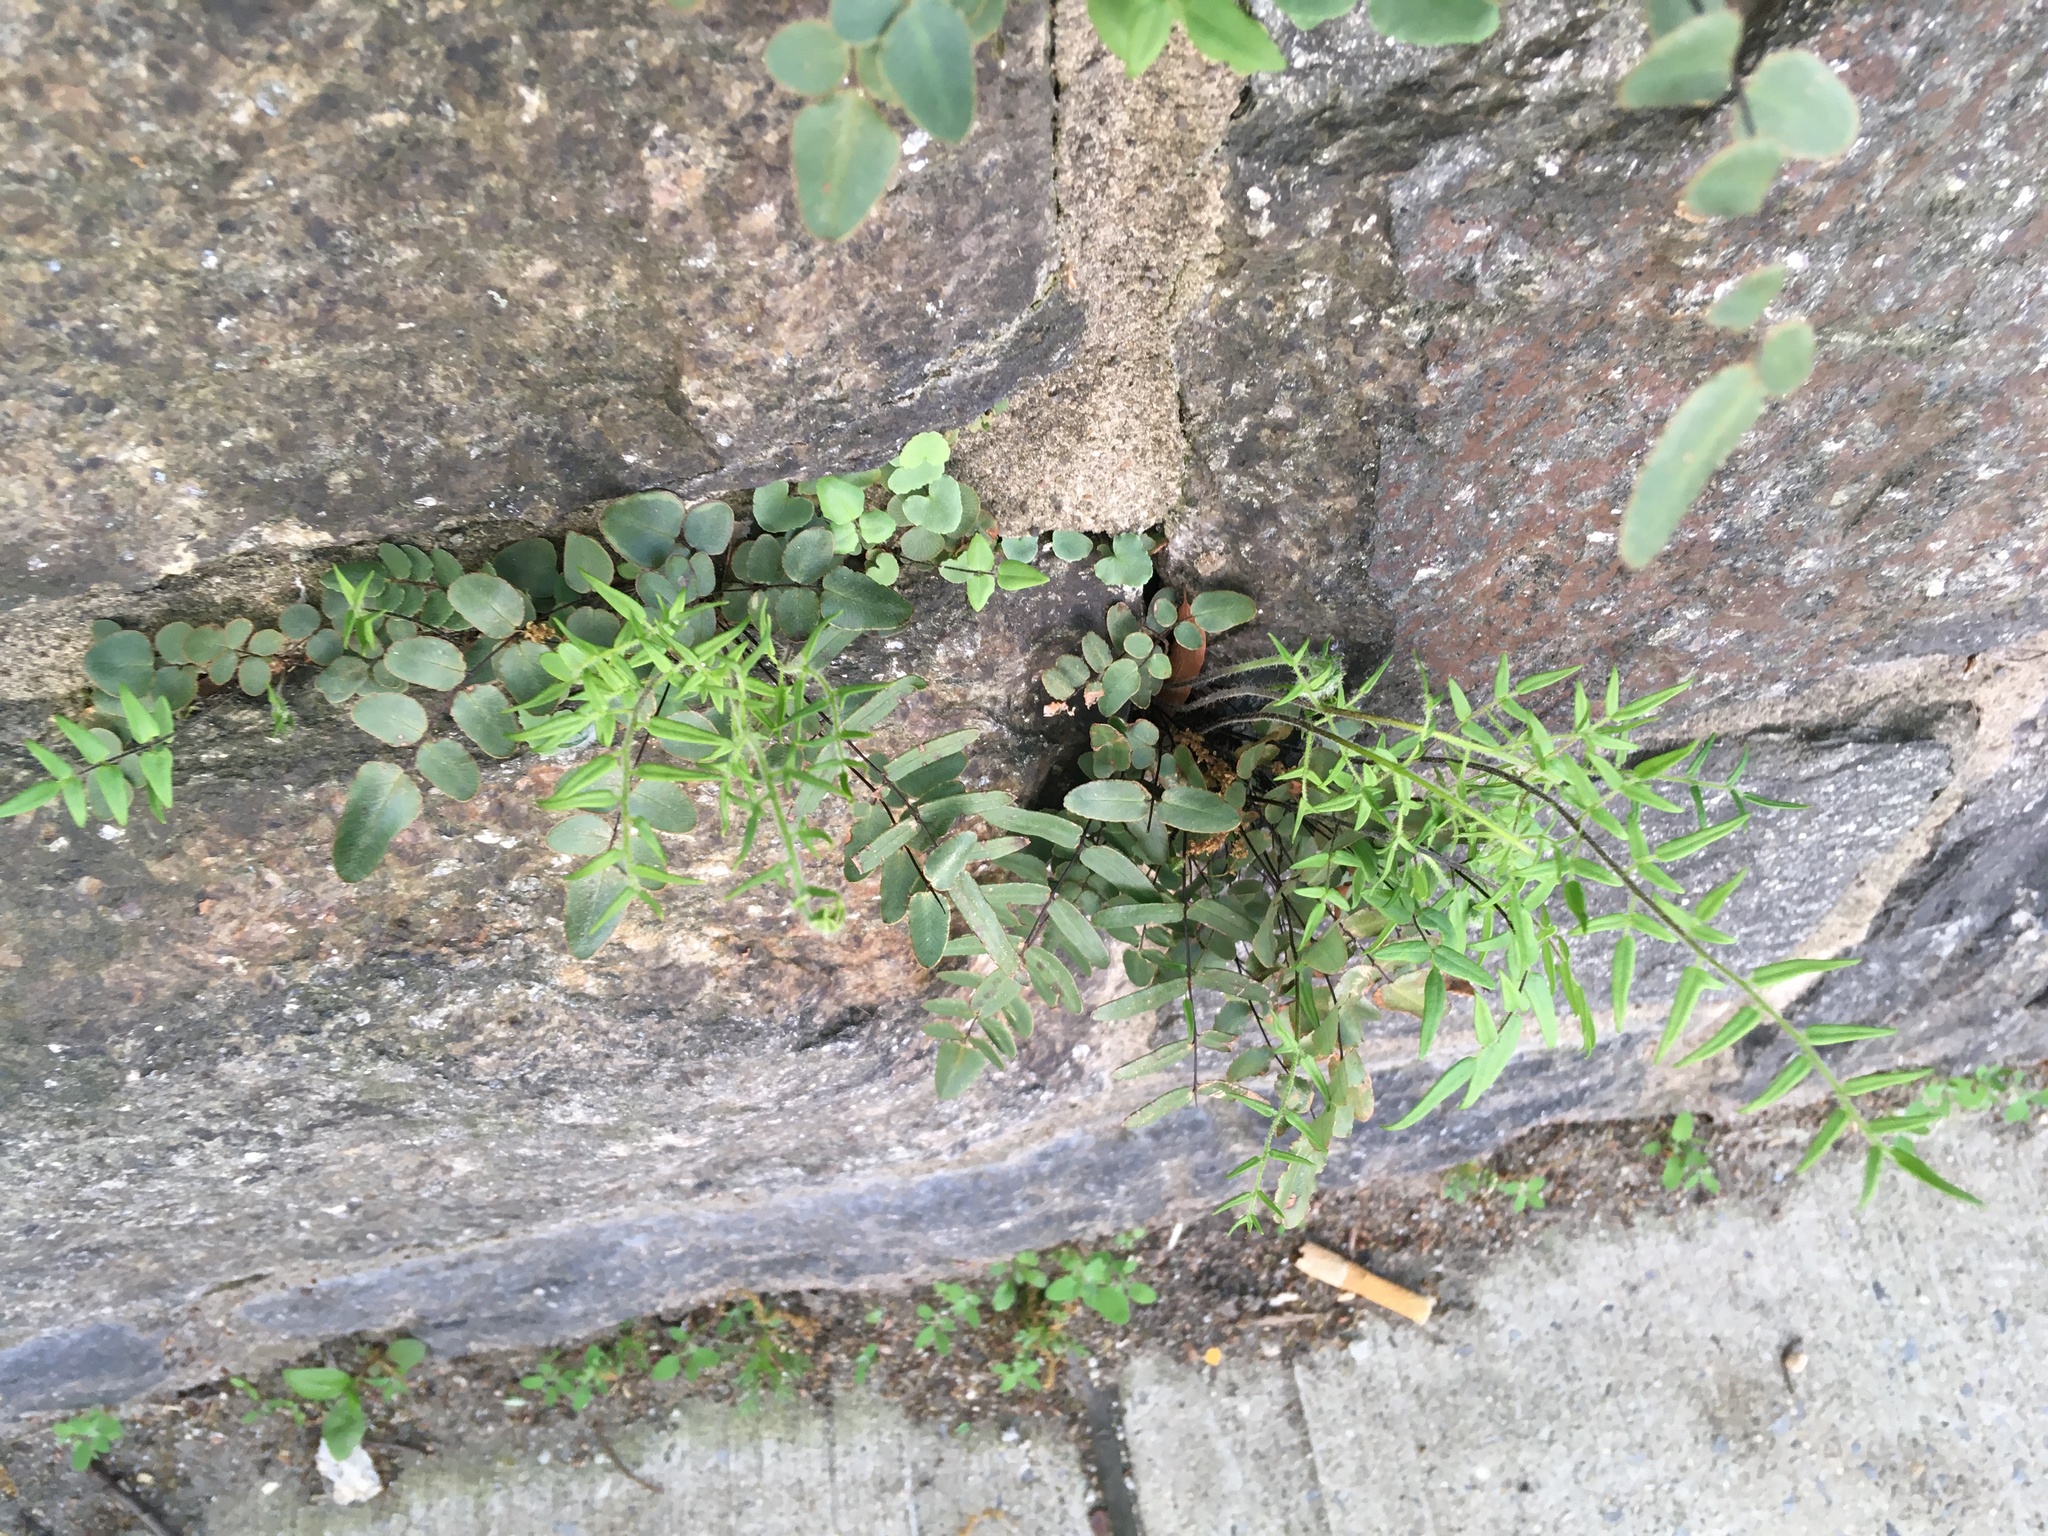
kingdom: Plantae
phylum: Tracheophyta
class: Polypodiopsida
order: Polypodiales
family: Pteridaceae
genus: Pellaea
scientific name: Pellaea atropurpurea
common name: Hairy cliffbrake
